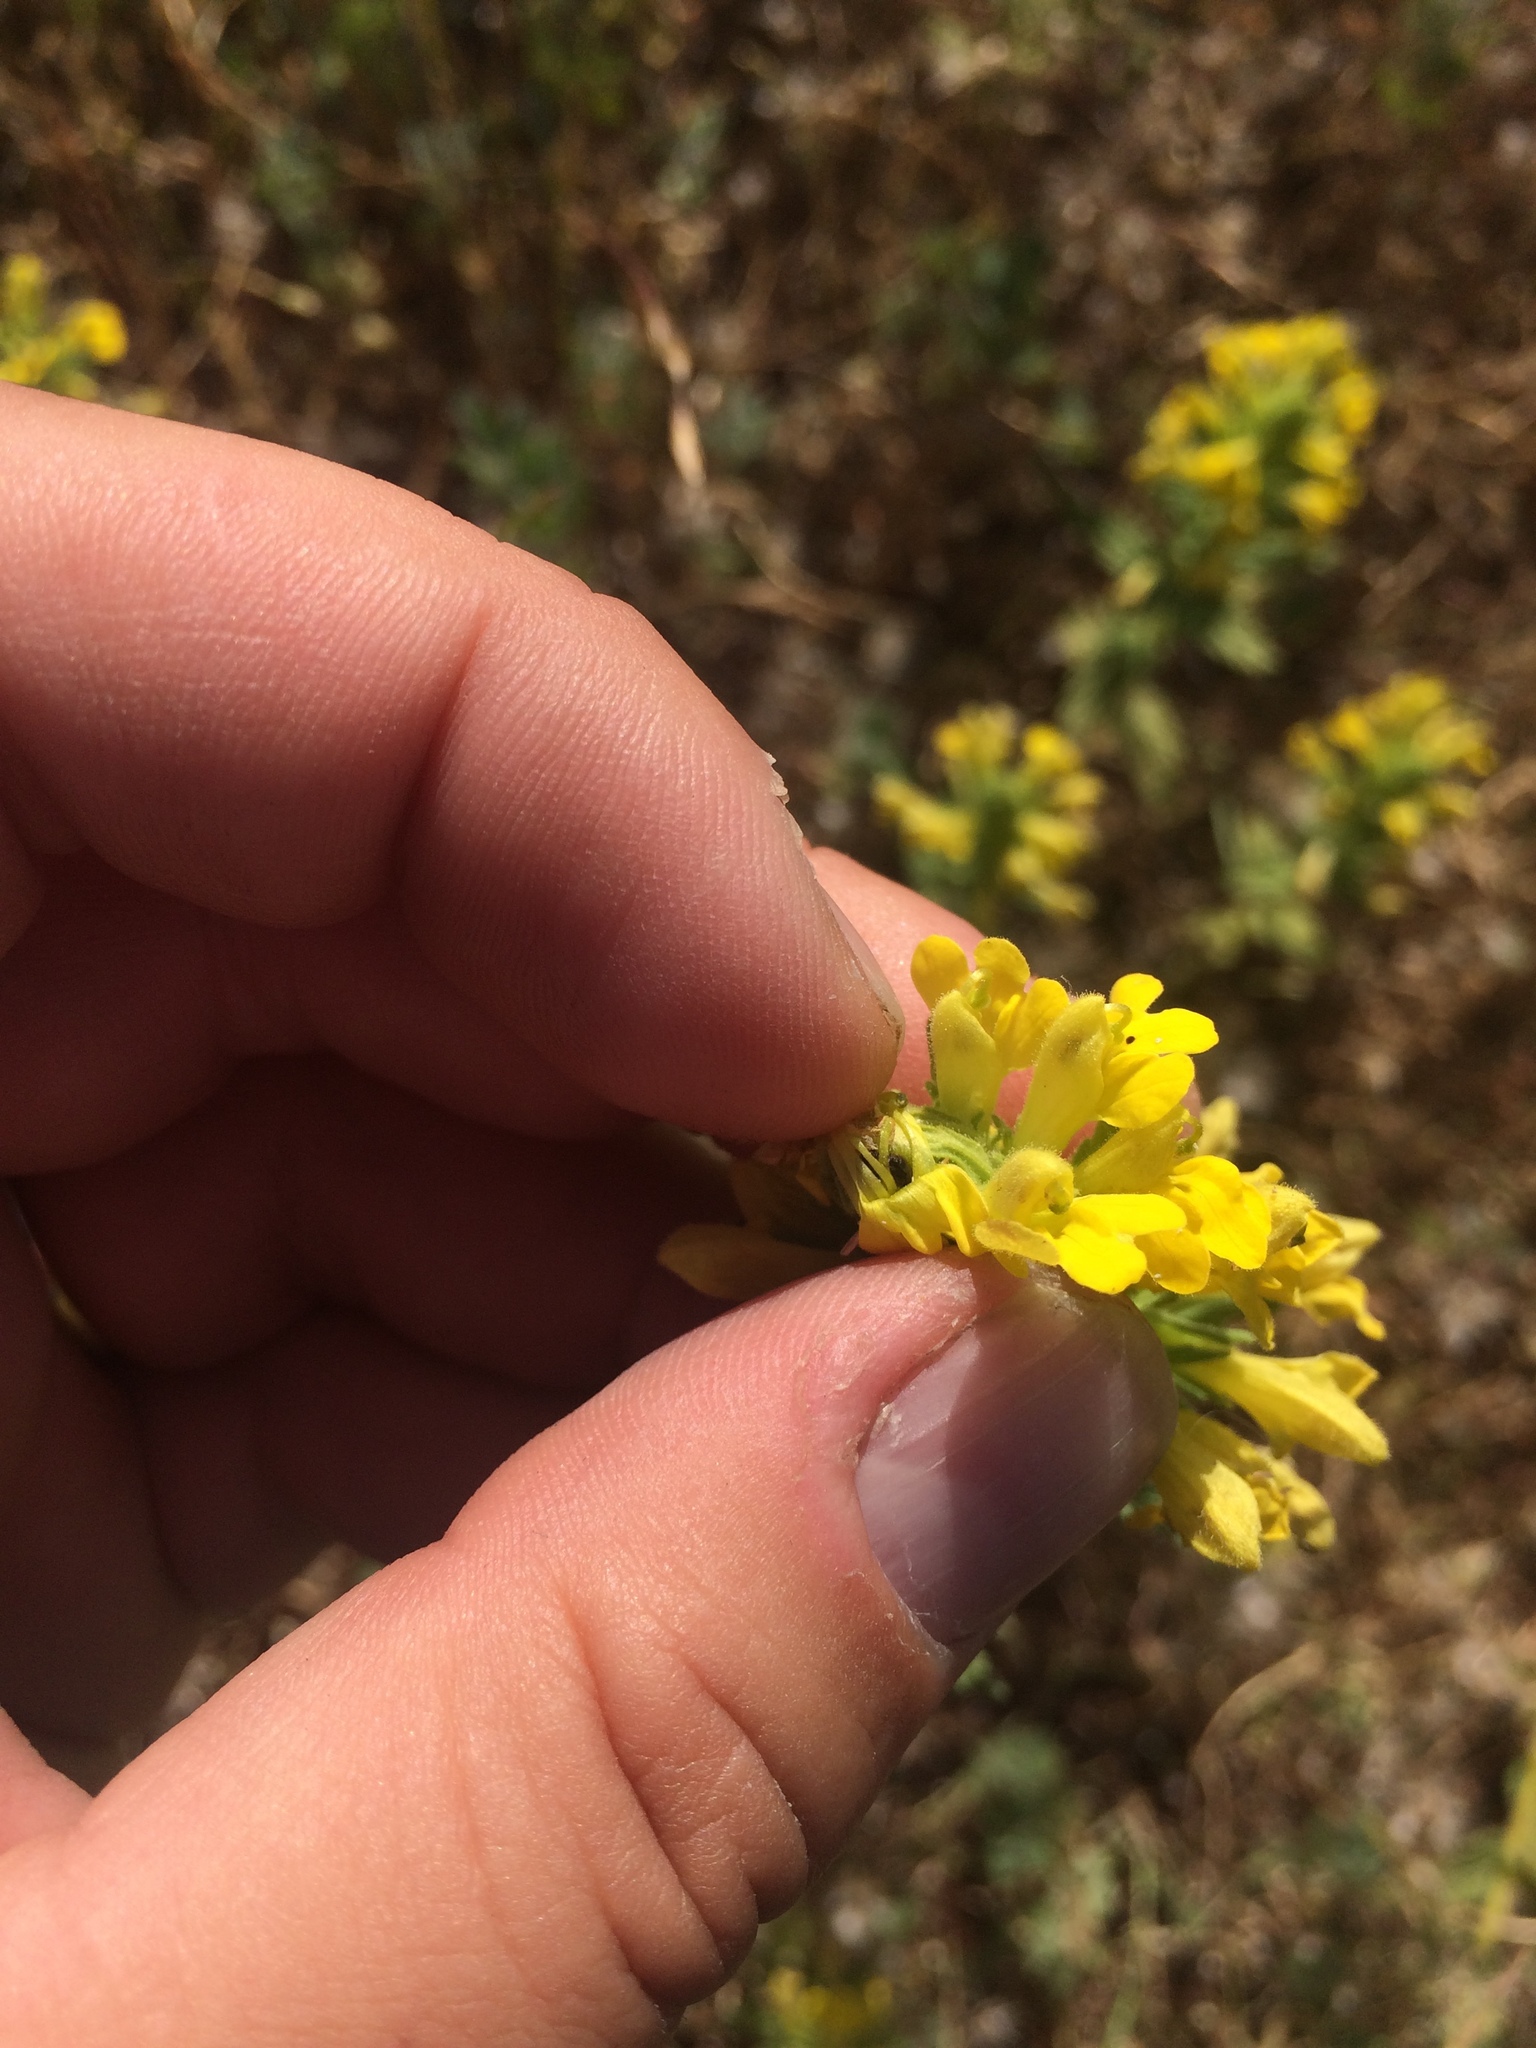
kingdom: Plantae
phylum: Tracheophyta
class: Magnoliopsida
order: Lamiales
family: Orobanchaceae
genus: Bellardia
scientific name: Bellardia viscosa
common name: Sticky parentucellia
